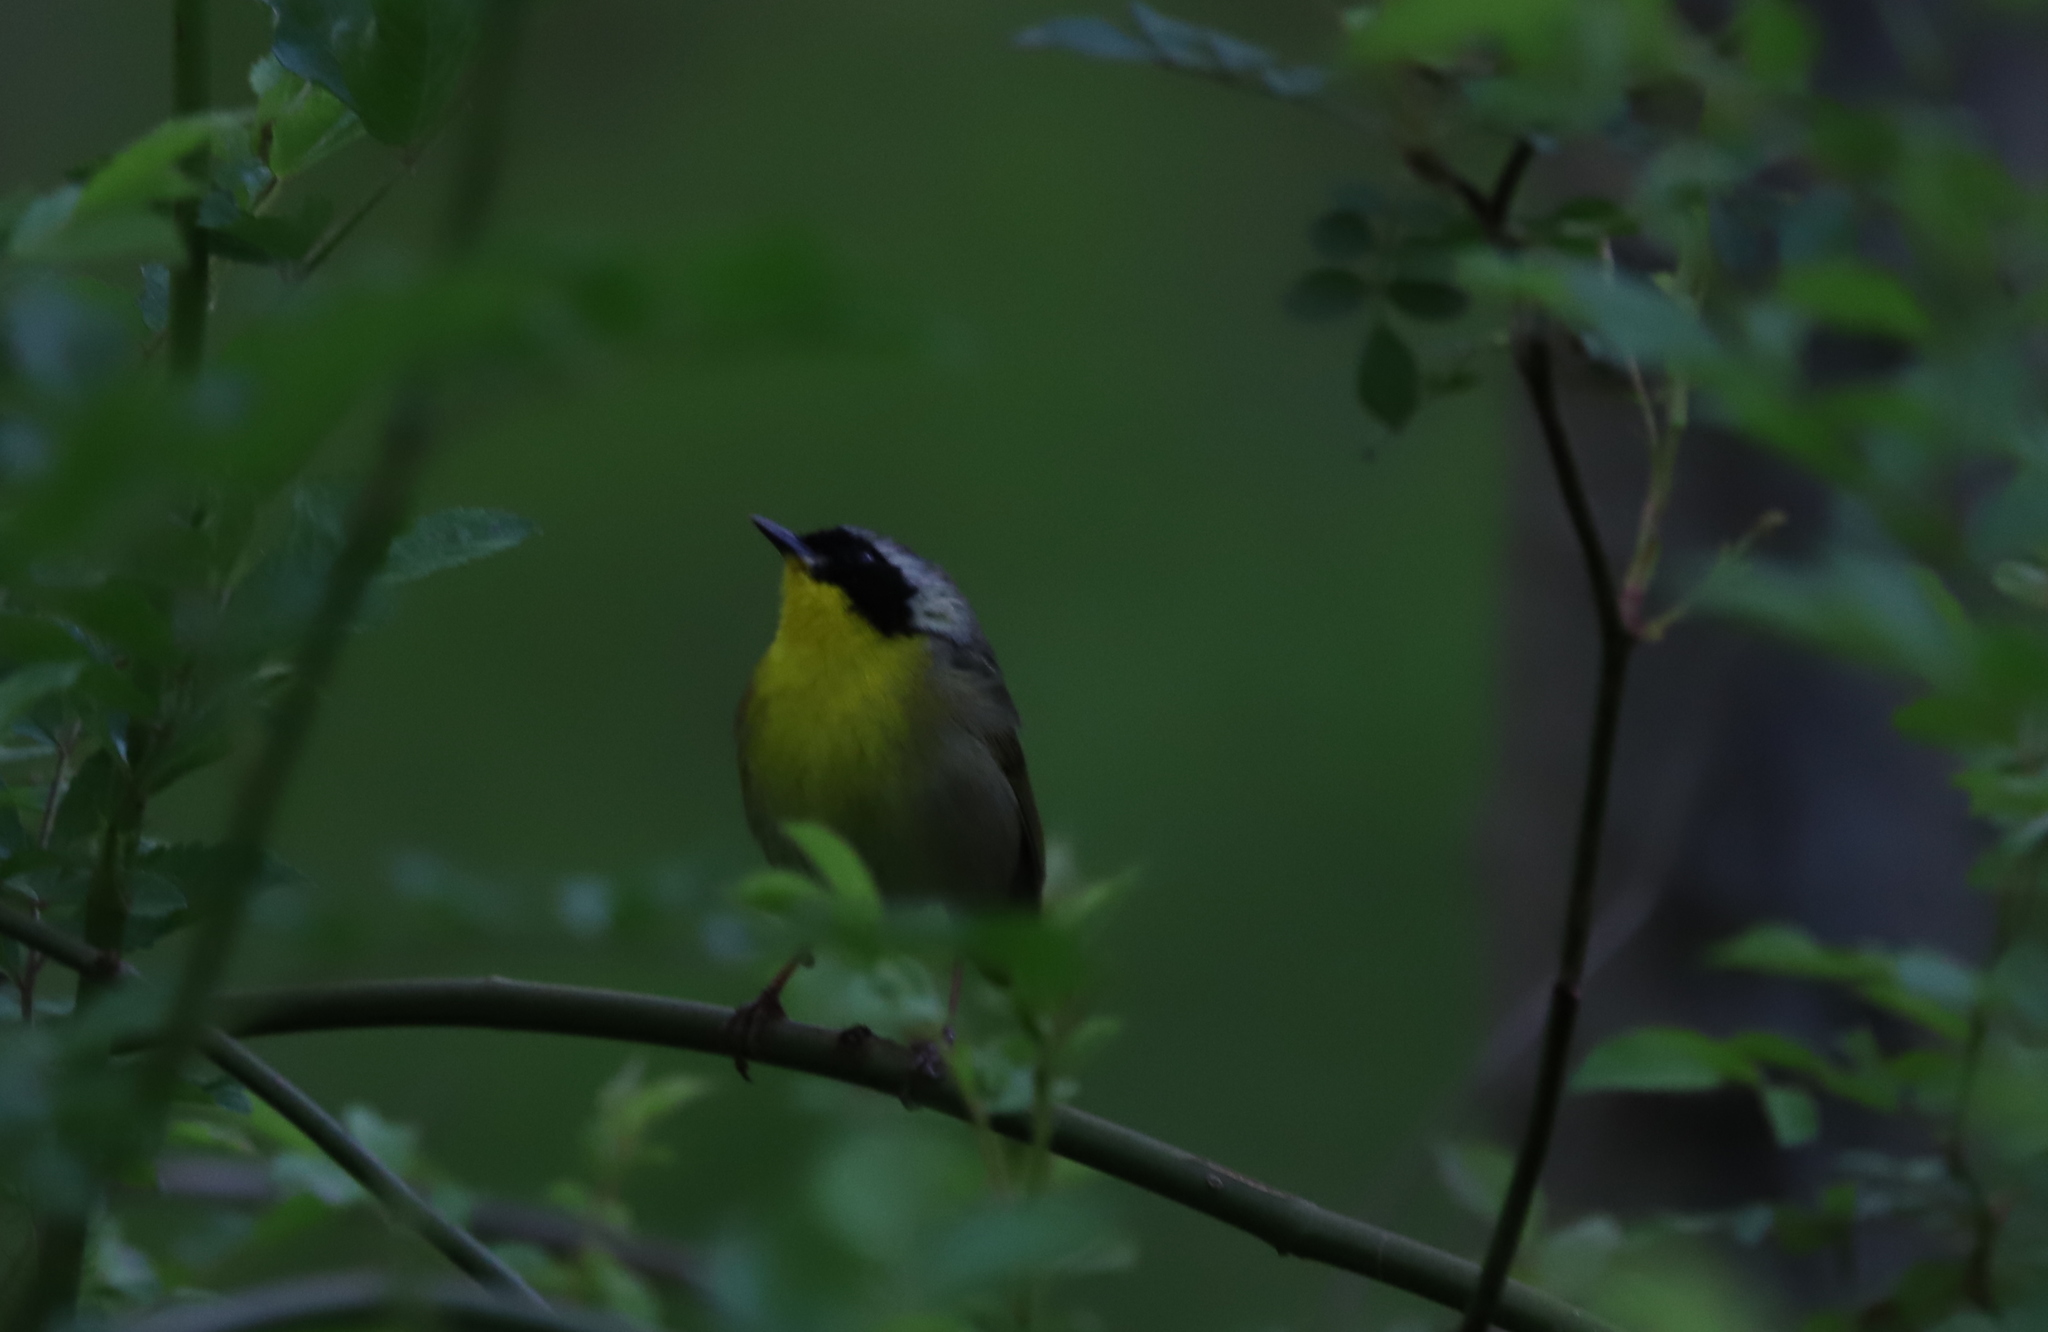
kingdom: Animalia
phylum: Chordata
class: Aves
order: Passeriformes
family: Parulidae
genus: Geothlypis
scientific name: Geothlypis trichas
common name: Common yellowthroat
